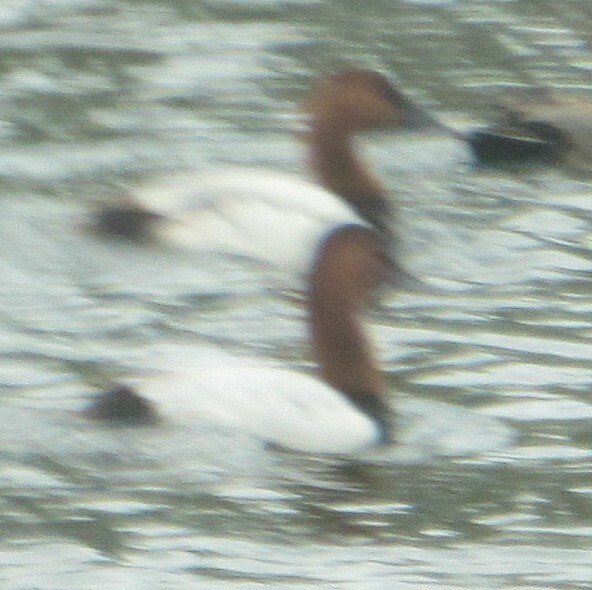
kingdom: Animalia
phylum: Chordata
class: Aves
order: Anseriformes
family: Anatidae
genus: Aythya
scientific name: Aythya valisineria
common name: Canvasback
